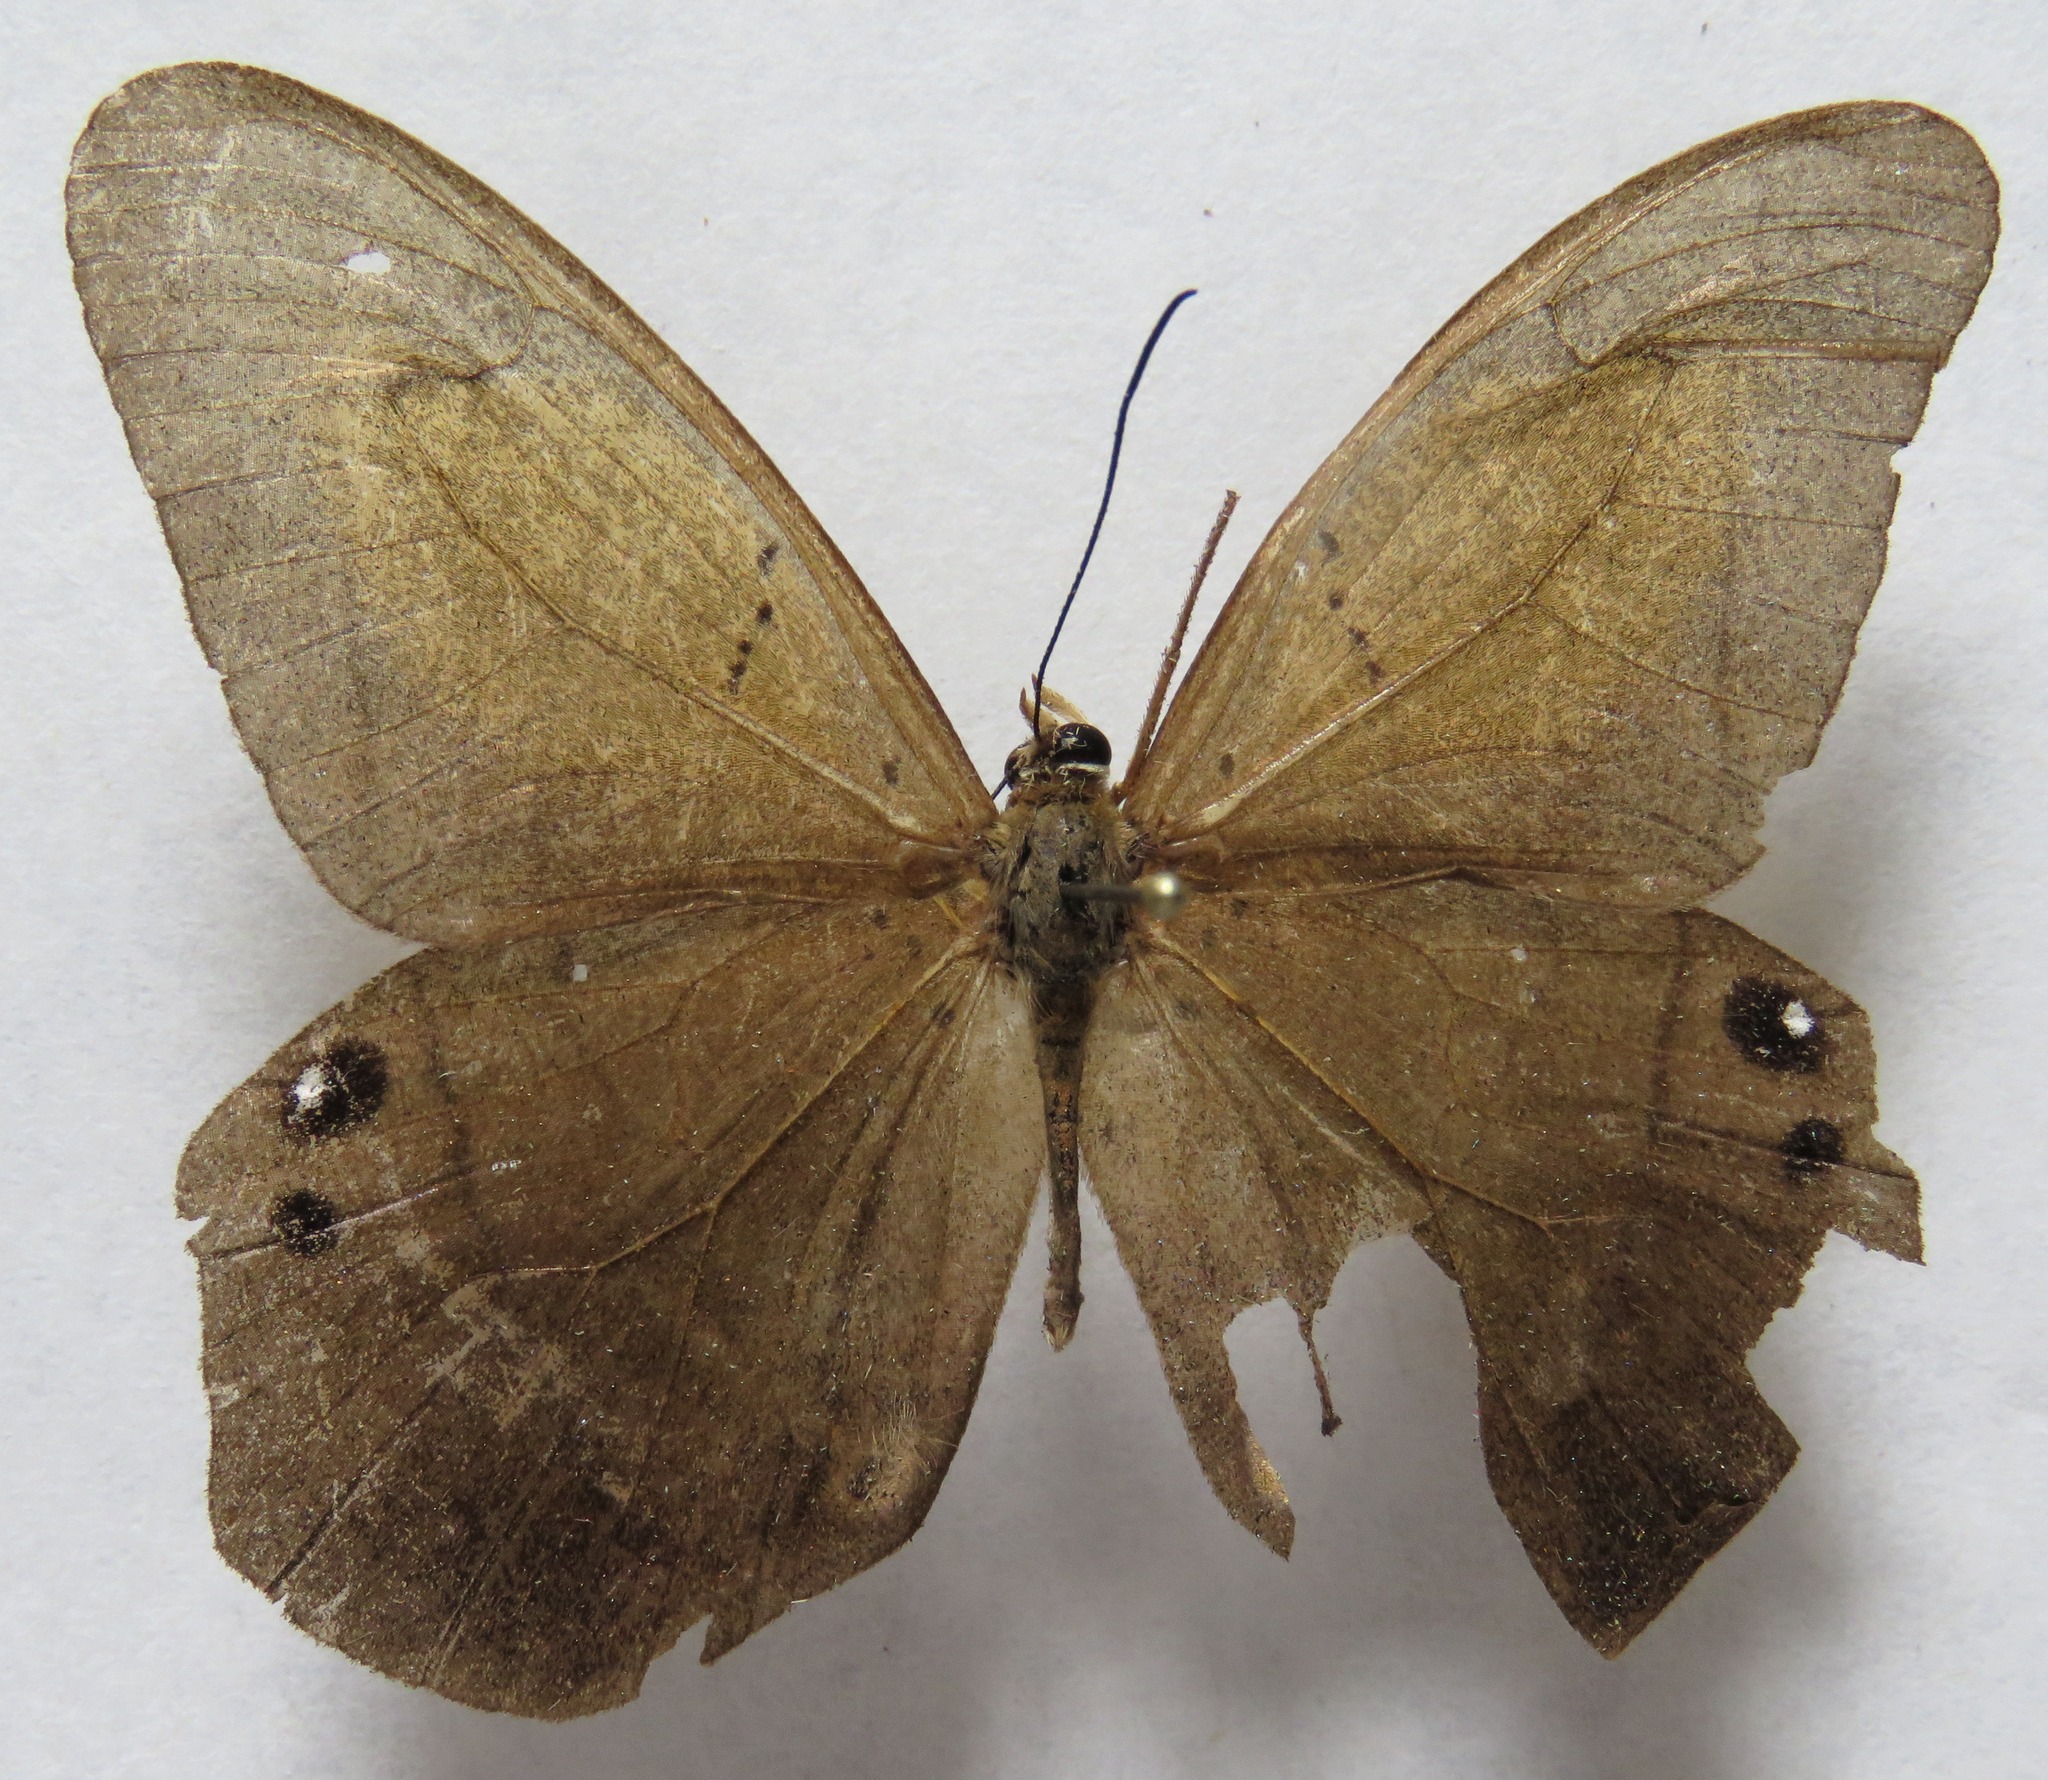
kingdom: Animalia
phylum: Arthropoda
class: Insecta
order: Lepidoptera
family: Nymphalidae
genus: Pierella
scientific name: Pierella luna
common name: Moon satyr
